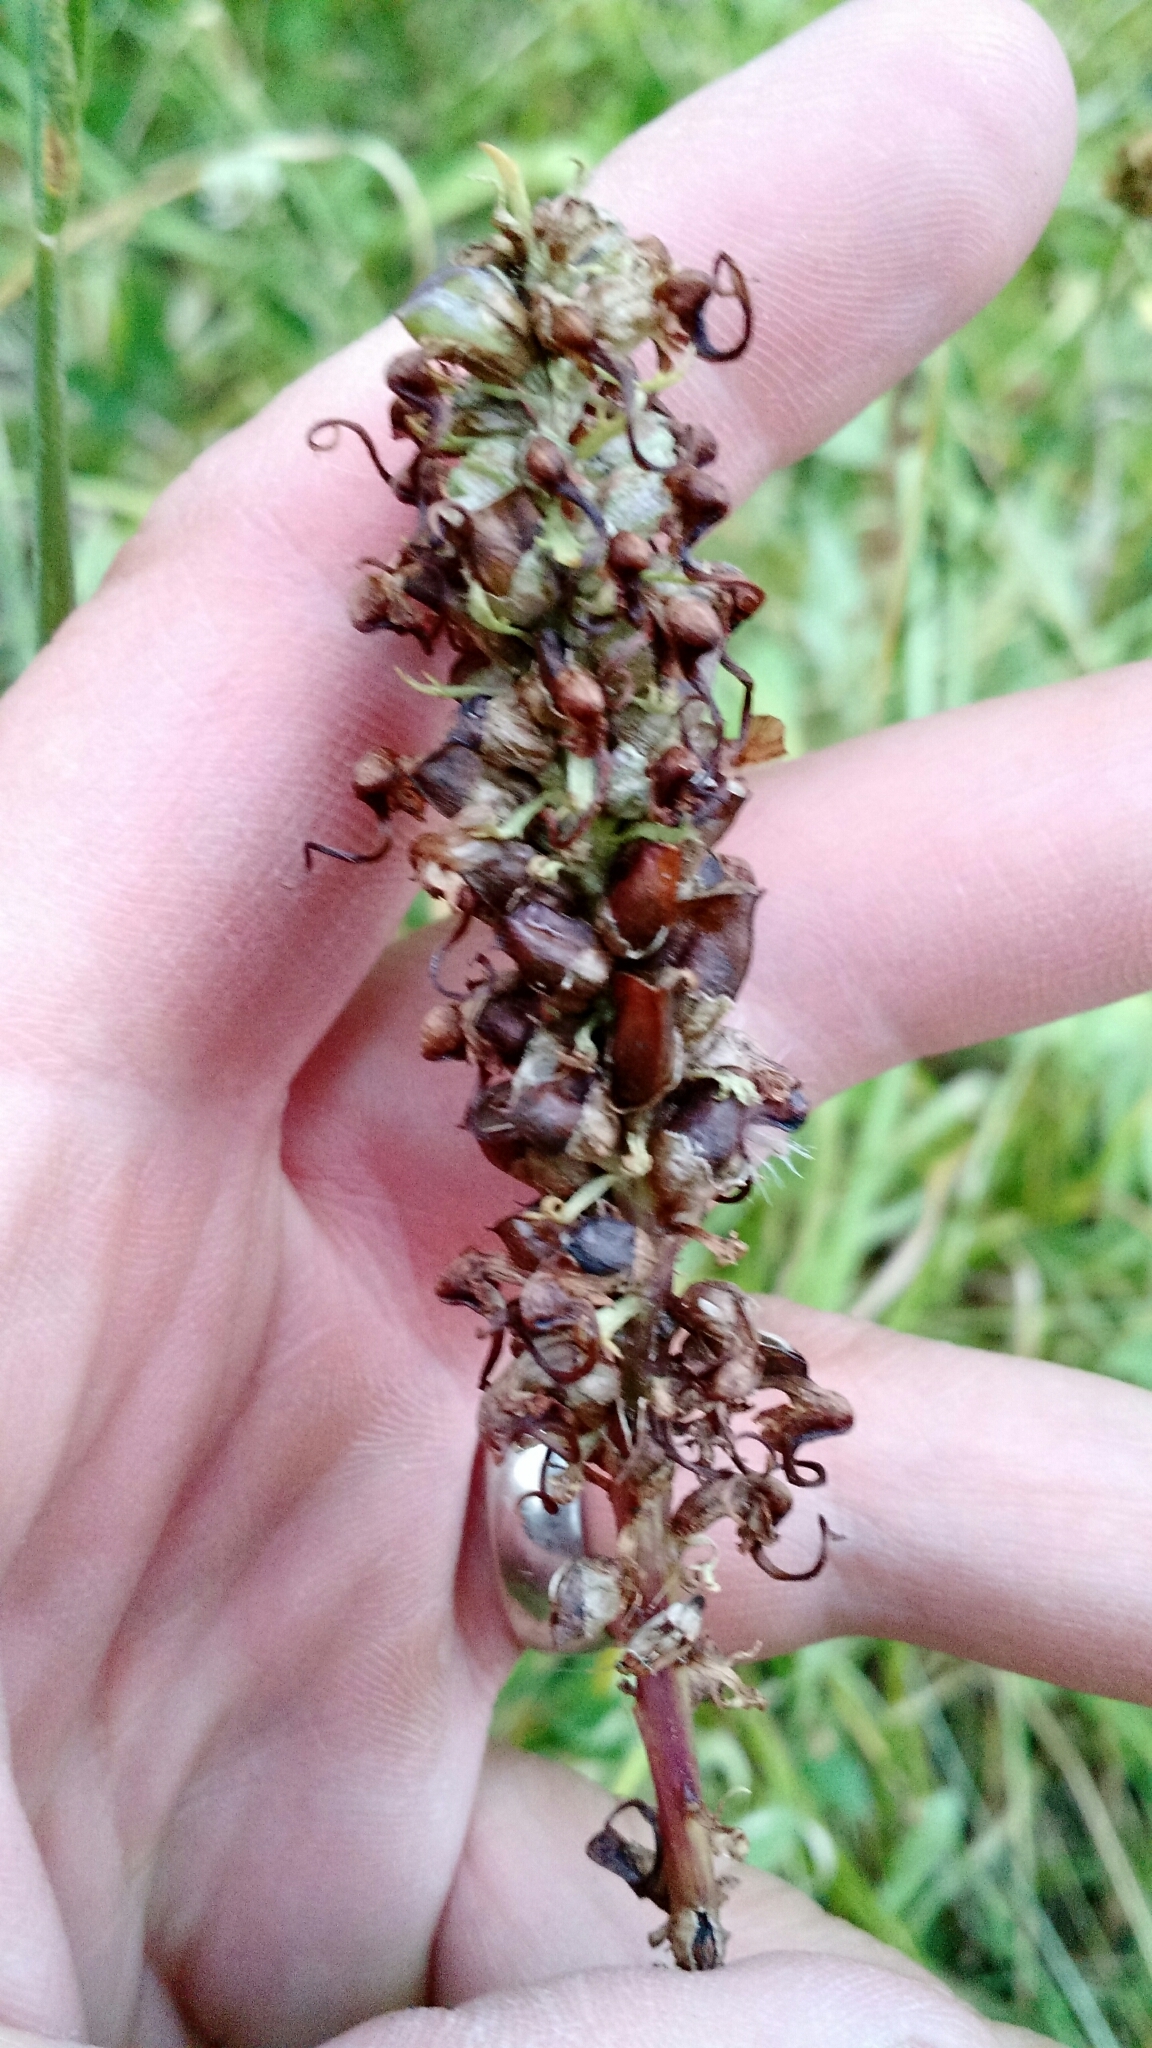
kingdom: Plantae
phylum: Tracheophyta
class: Magnoliopsida
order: Lamiales
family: Orobanchaceae
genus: Pedicularis
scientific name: Pedicularis groenlandica
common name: Elephant's-head
